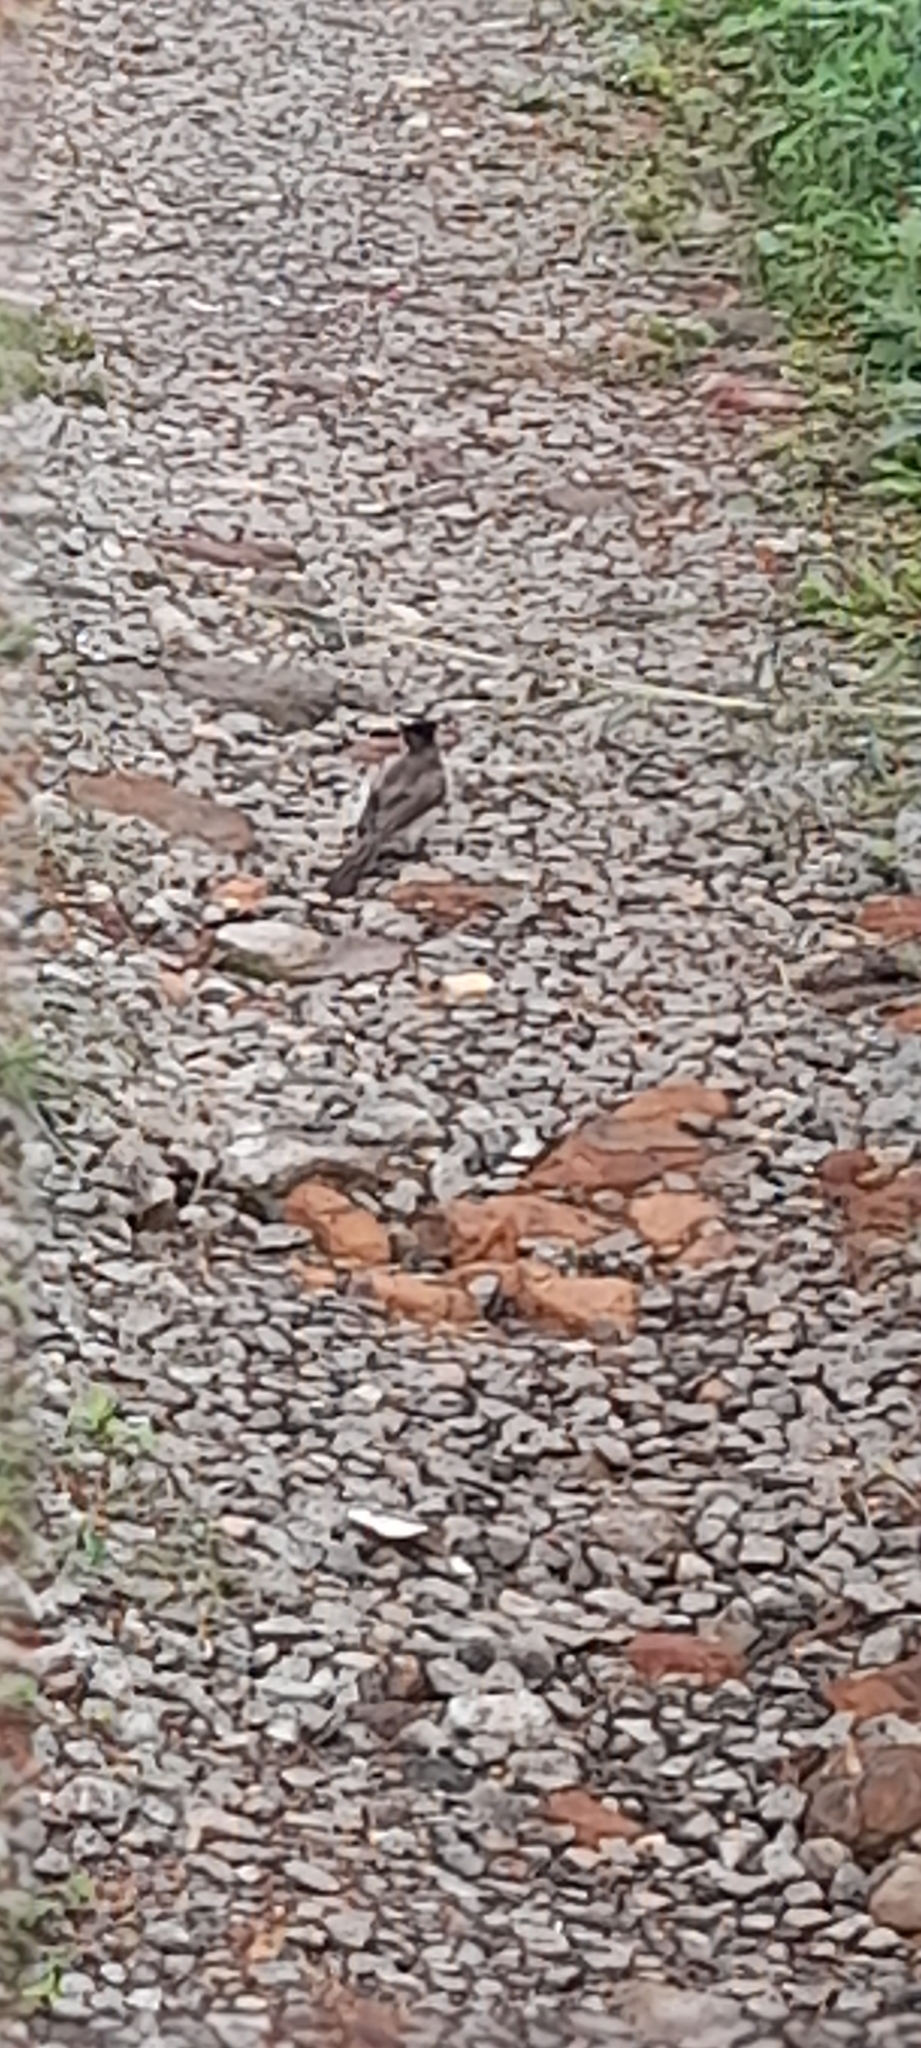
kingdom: Animalia
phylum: Chordata
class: Aves
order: Passeriformes
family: Pycnonotidae
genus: Pycnonotus
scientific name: Pycnonotus jocosus
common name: Red-whiskered bulbul
